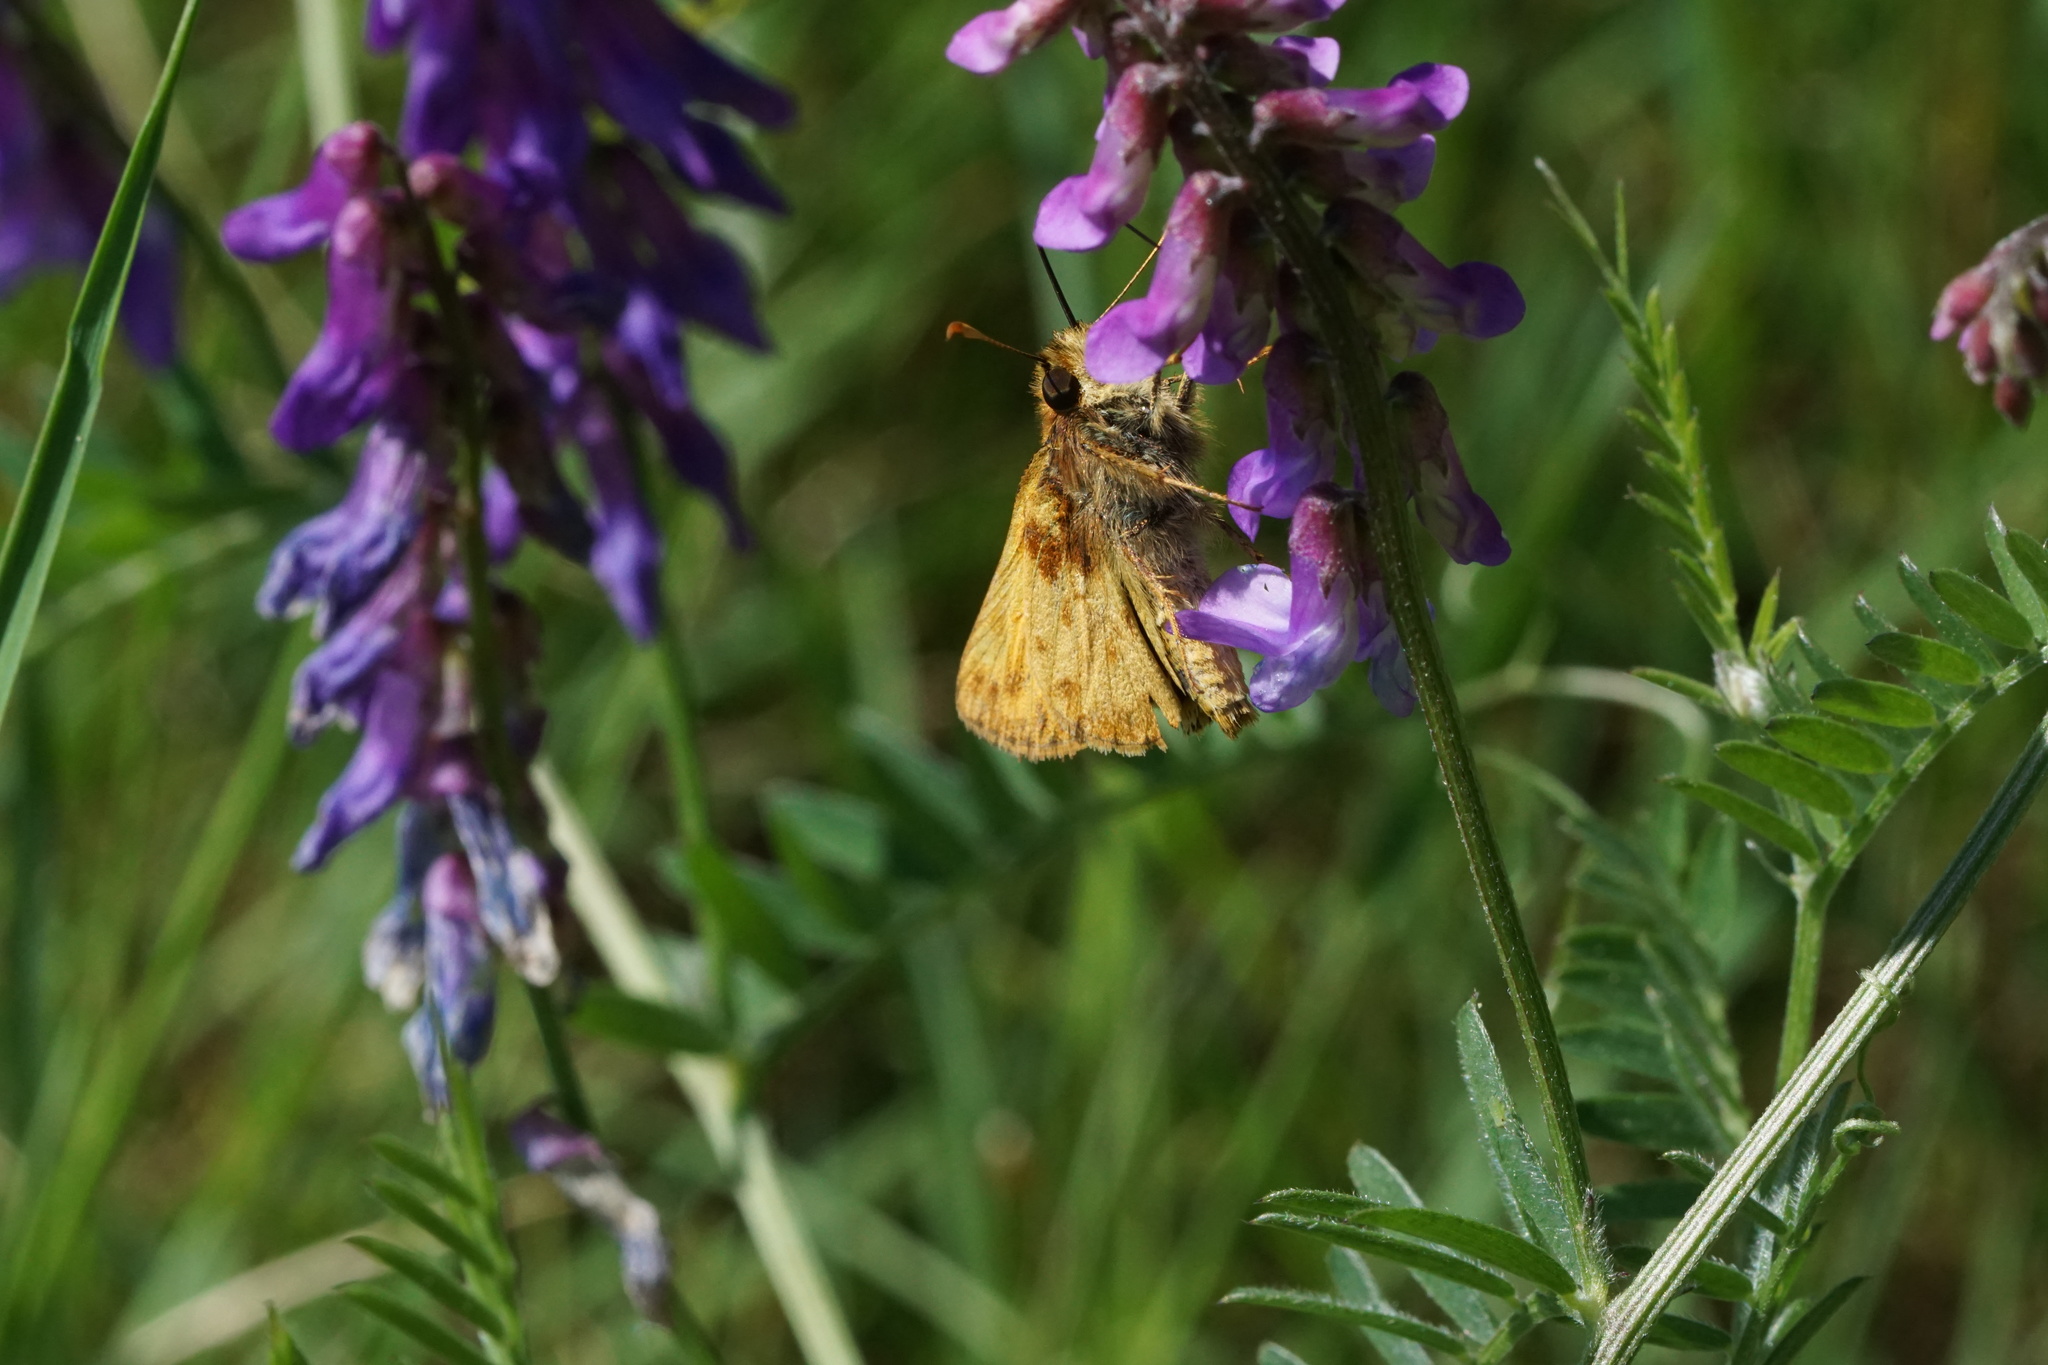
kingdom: Animalia
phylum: Arthropoda
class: Insecta
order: Lepidoptera
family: Hesperiidae
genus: Lon
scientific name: Lon zabulon
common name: Zabulon skipper
